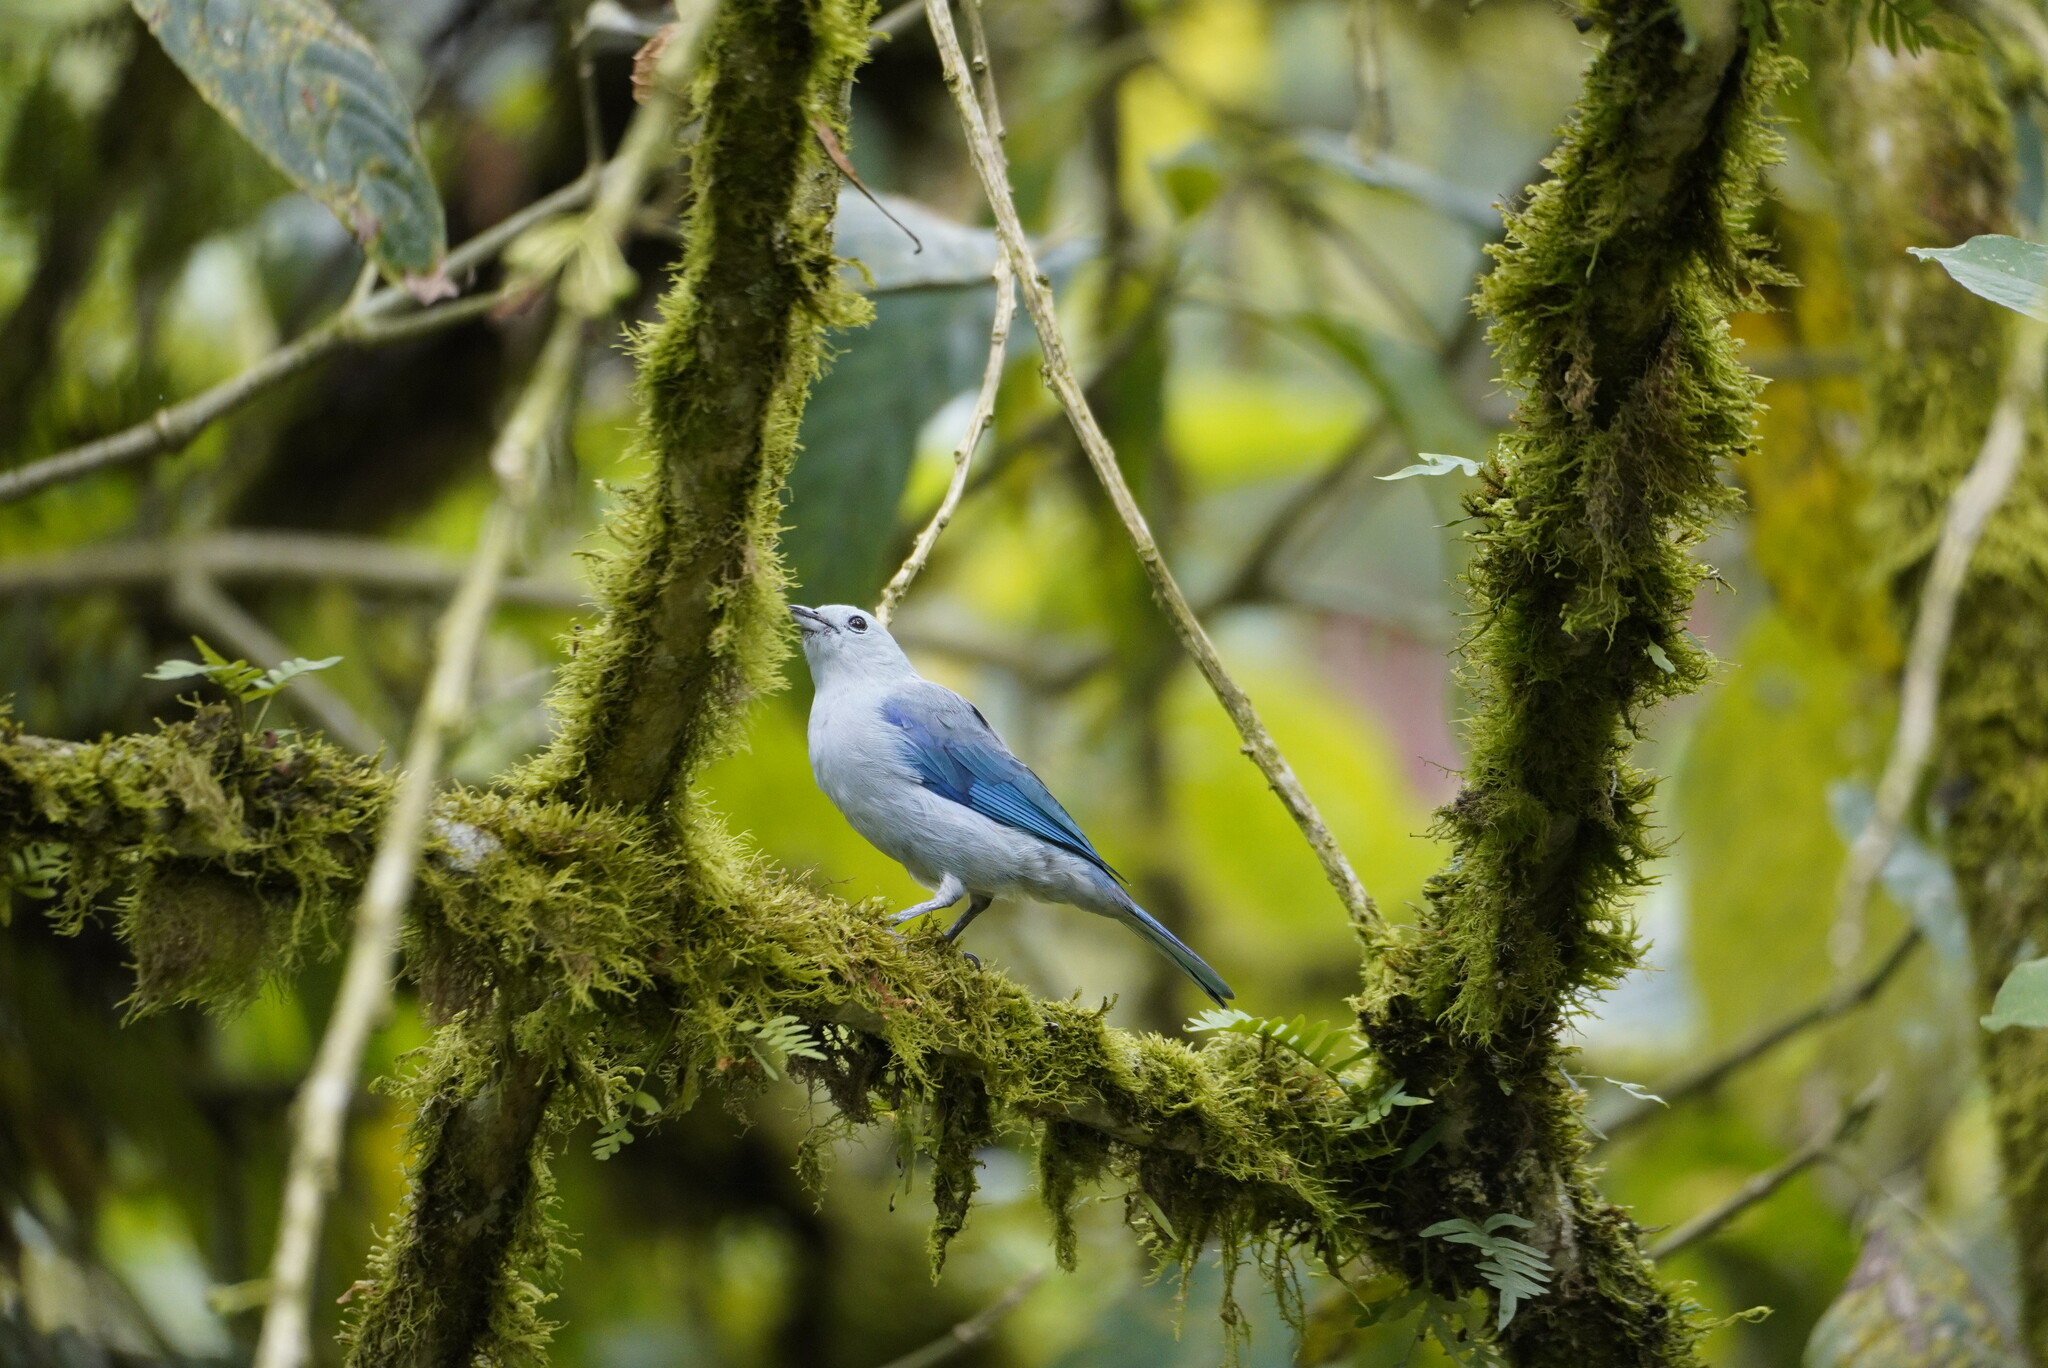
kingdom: Animalia
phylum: Chordata
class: Aves
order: Passeriformes
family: Thraupidae
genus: Thraupis
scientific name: Thraupis episcopus
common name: Blue-grey tanager
